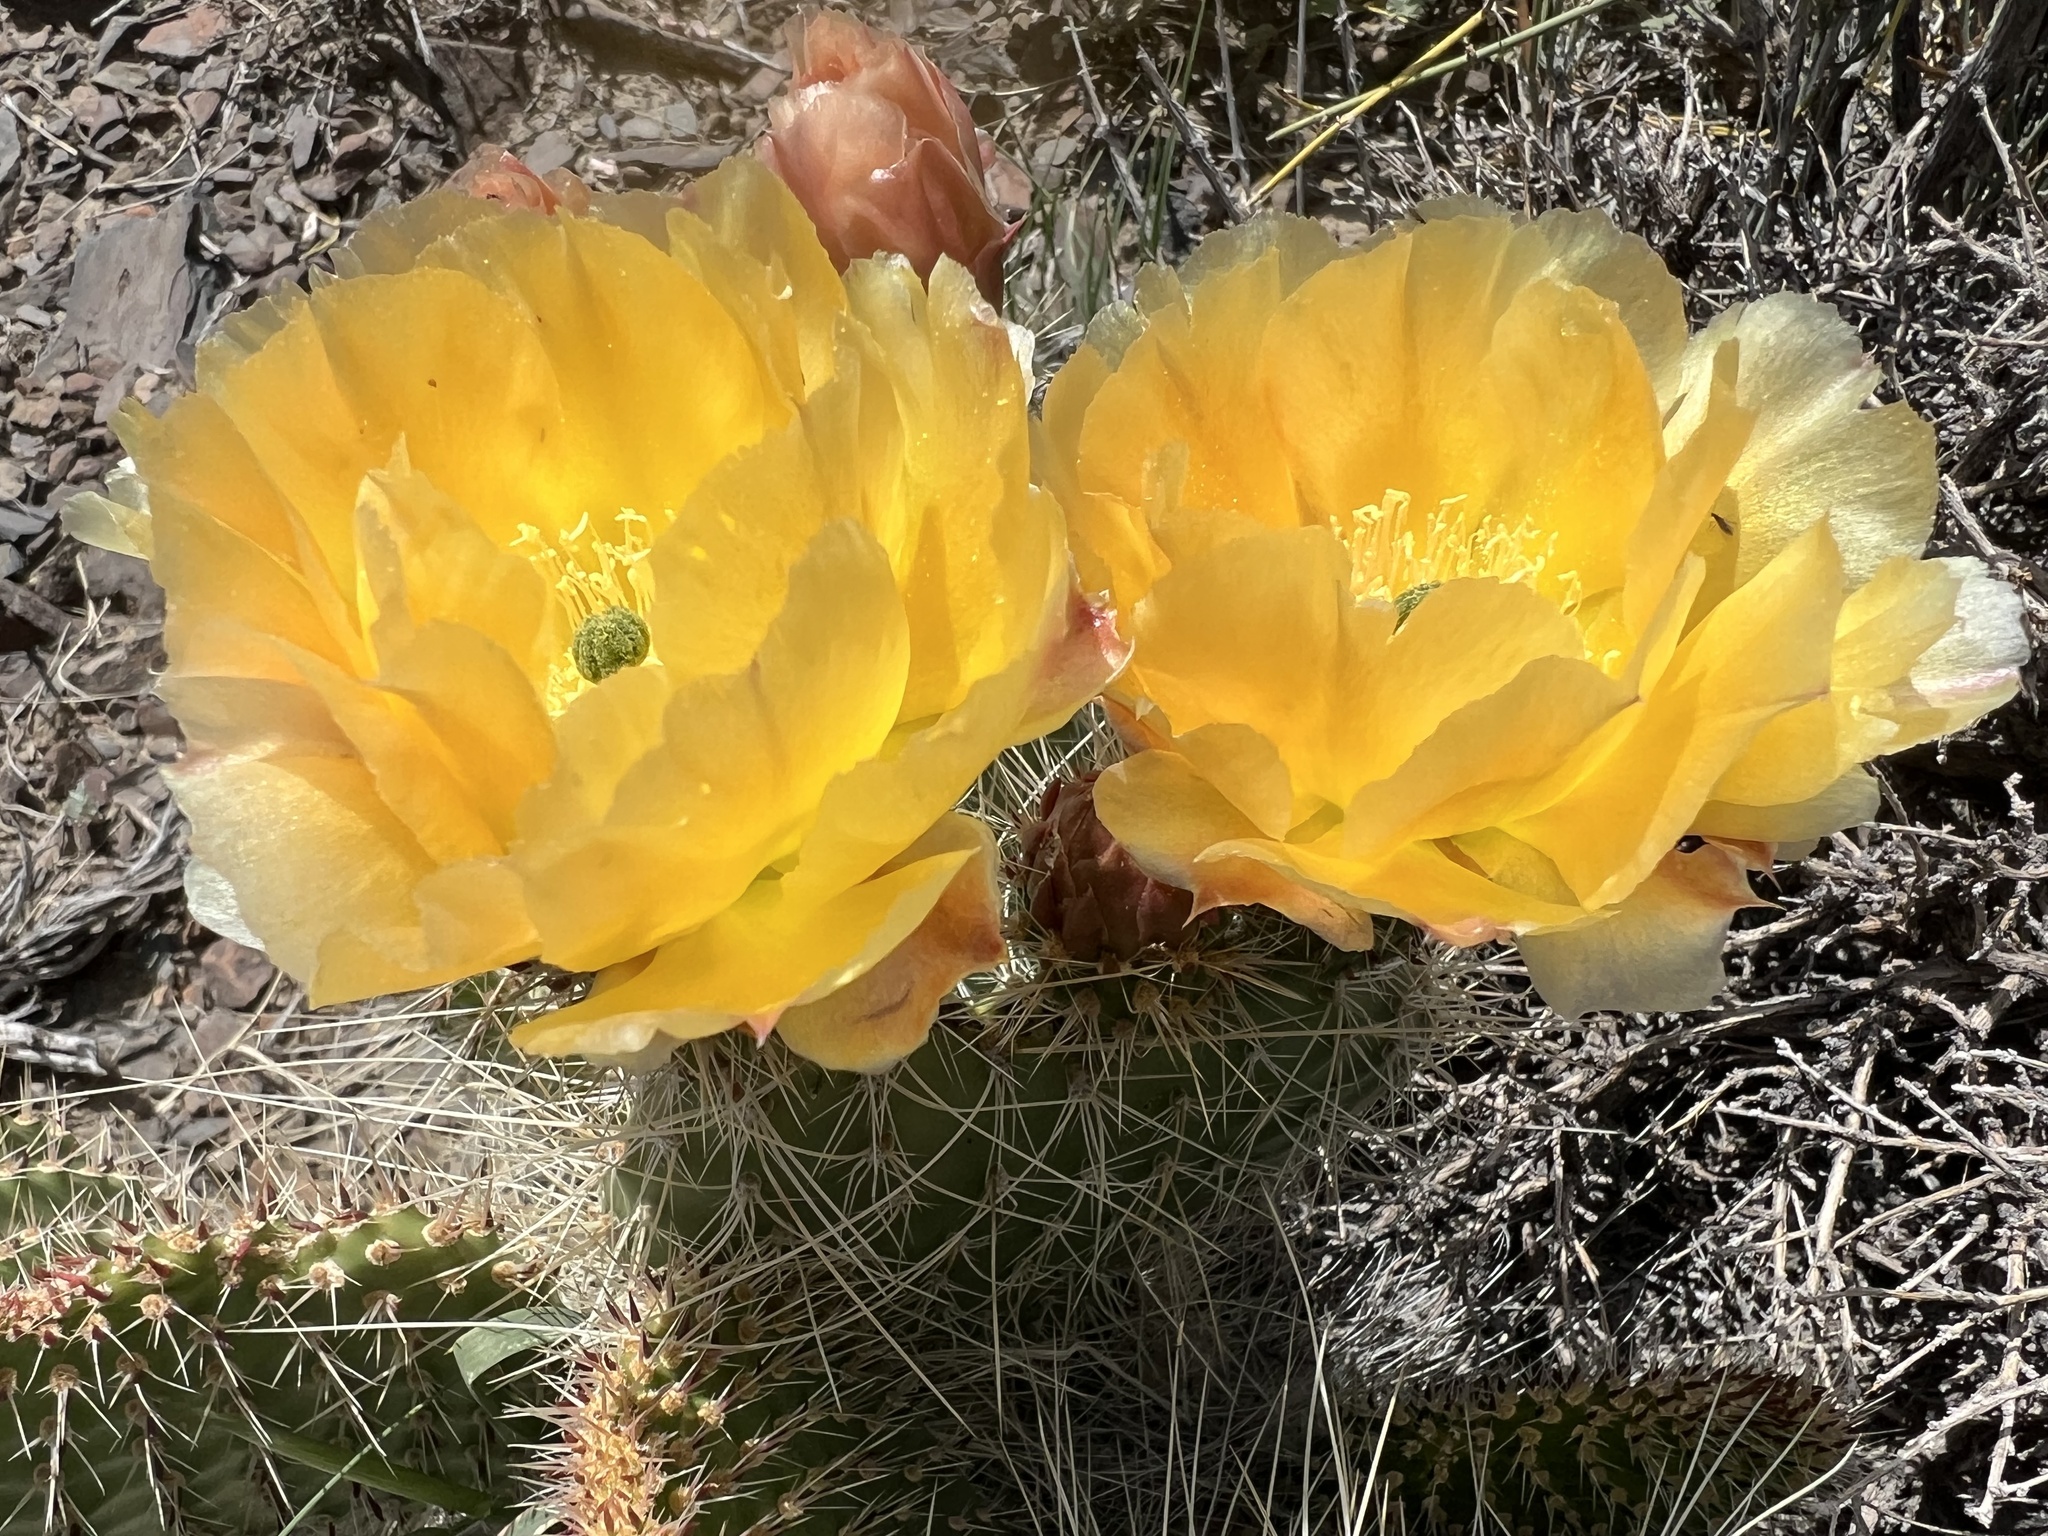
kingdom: Plantae
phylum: Tracheophyta
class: Magnoliopsida
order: Caryophyllales
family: Cactaceae
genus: Opuntia
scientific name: Opuntia polyacantha
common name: Plains prickly-pear
